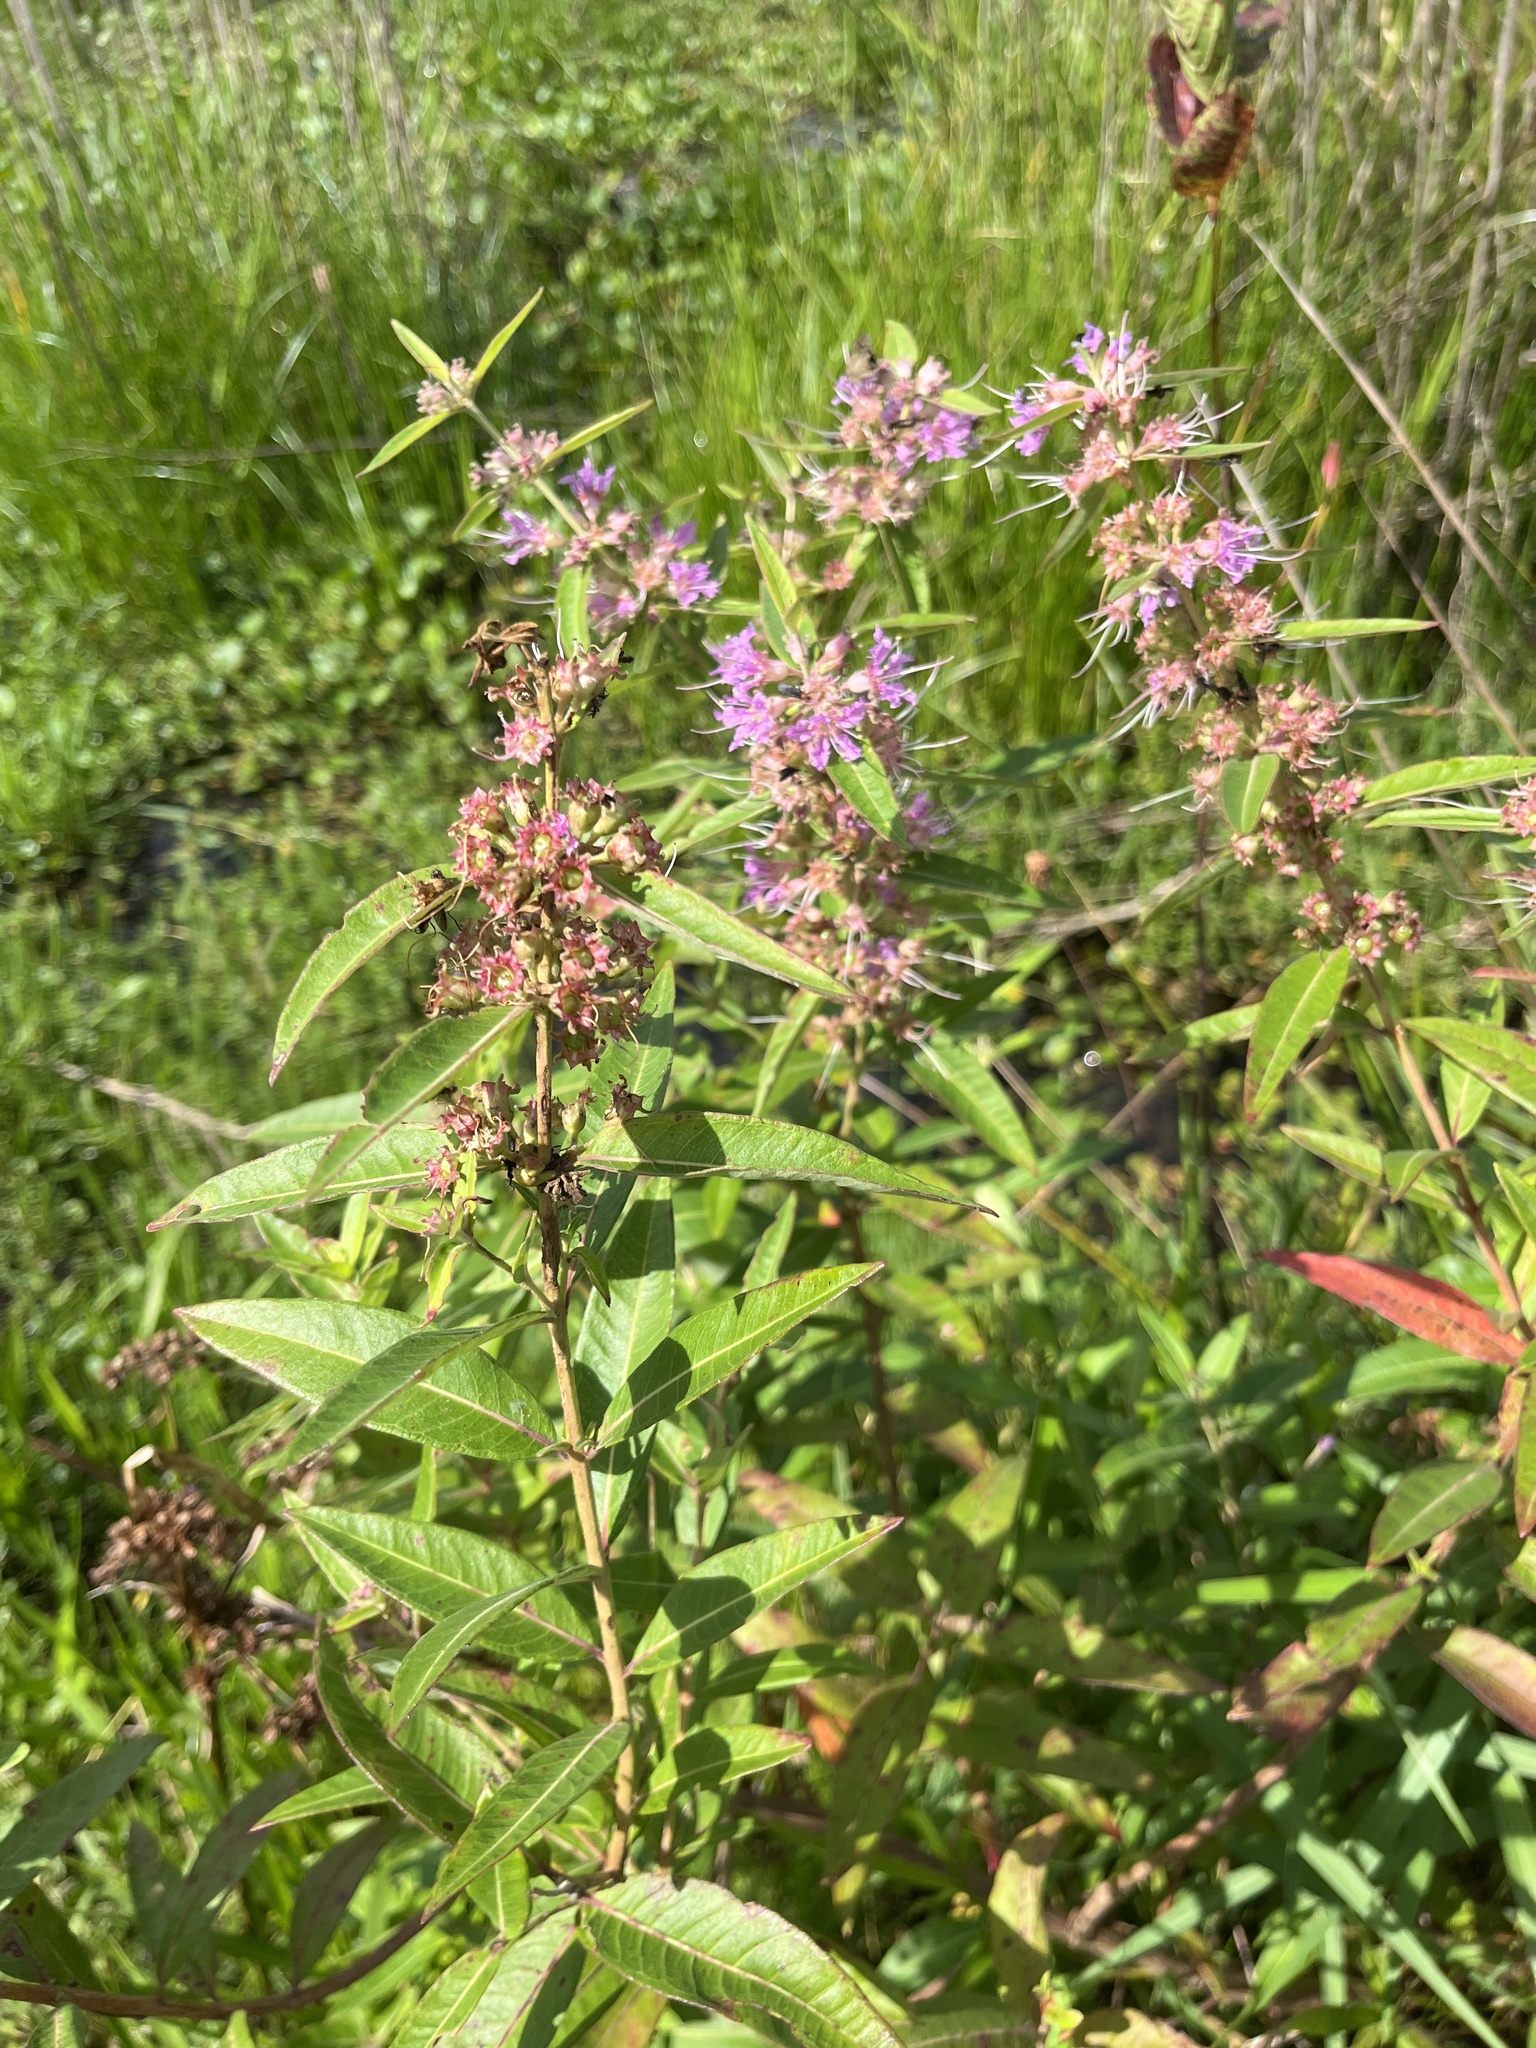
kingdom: Plantae
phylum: Tracheophyta
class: Magnoliopsida
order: Myrtales
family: Lythraceae
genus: Decodon
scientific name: Decodon verticillatus
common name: Hairy swamp loosestrife
